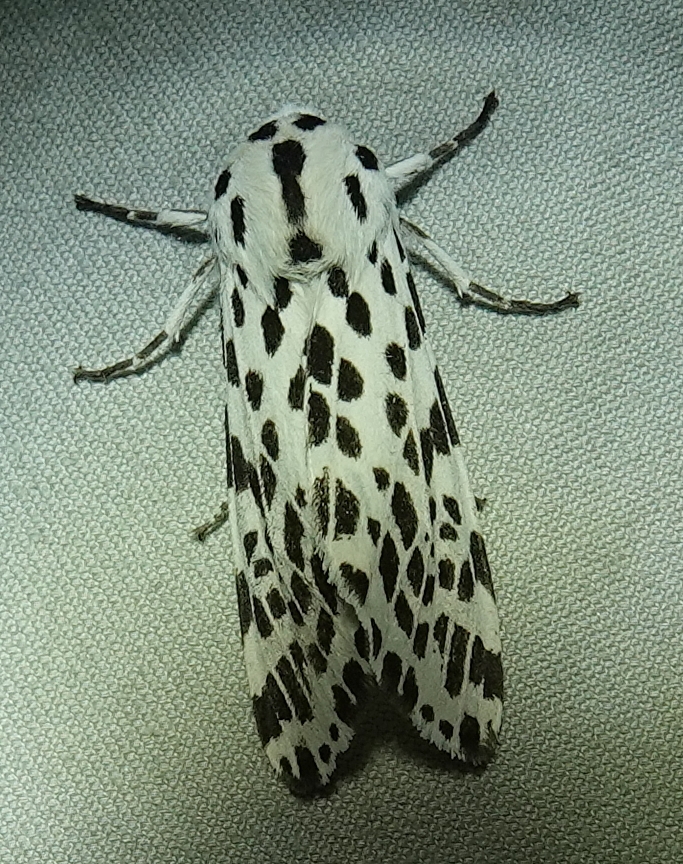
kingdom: Animalia
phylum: Arthropoda
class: Insecta
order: Lepidoptera
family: Erebidae
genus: Hypercompe
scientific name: Hypercompe permaculata
